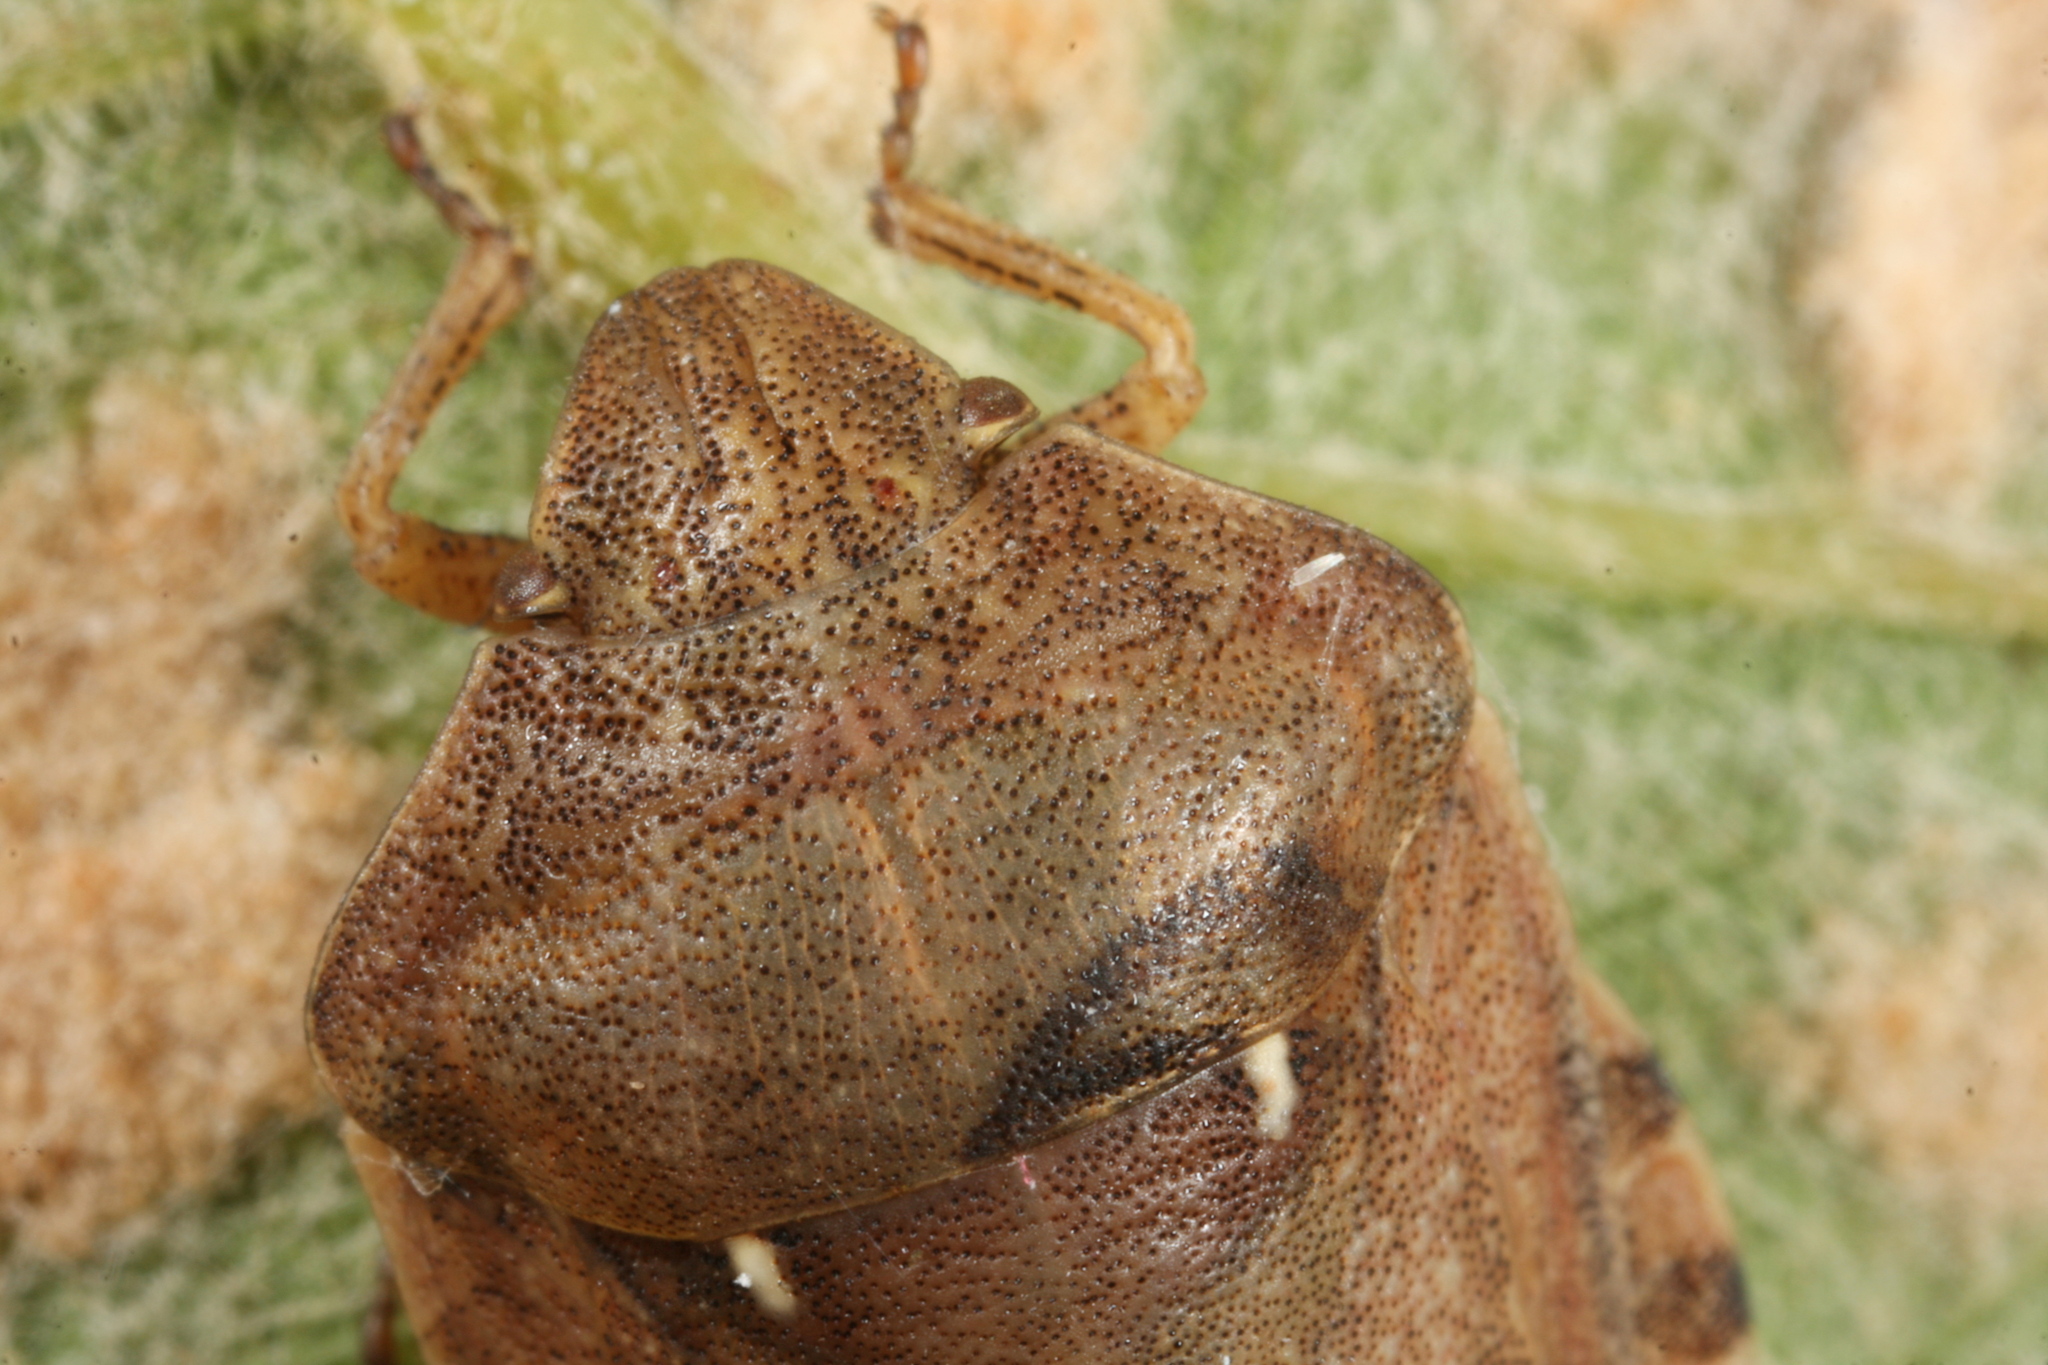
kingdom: Animalia
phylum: Arthropoda
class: Insecta
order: Hemiptera
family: Scutelleridae
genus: Eurygaster
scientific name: Eurygaster maura
